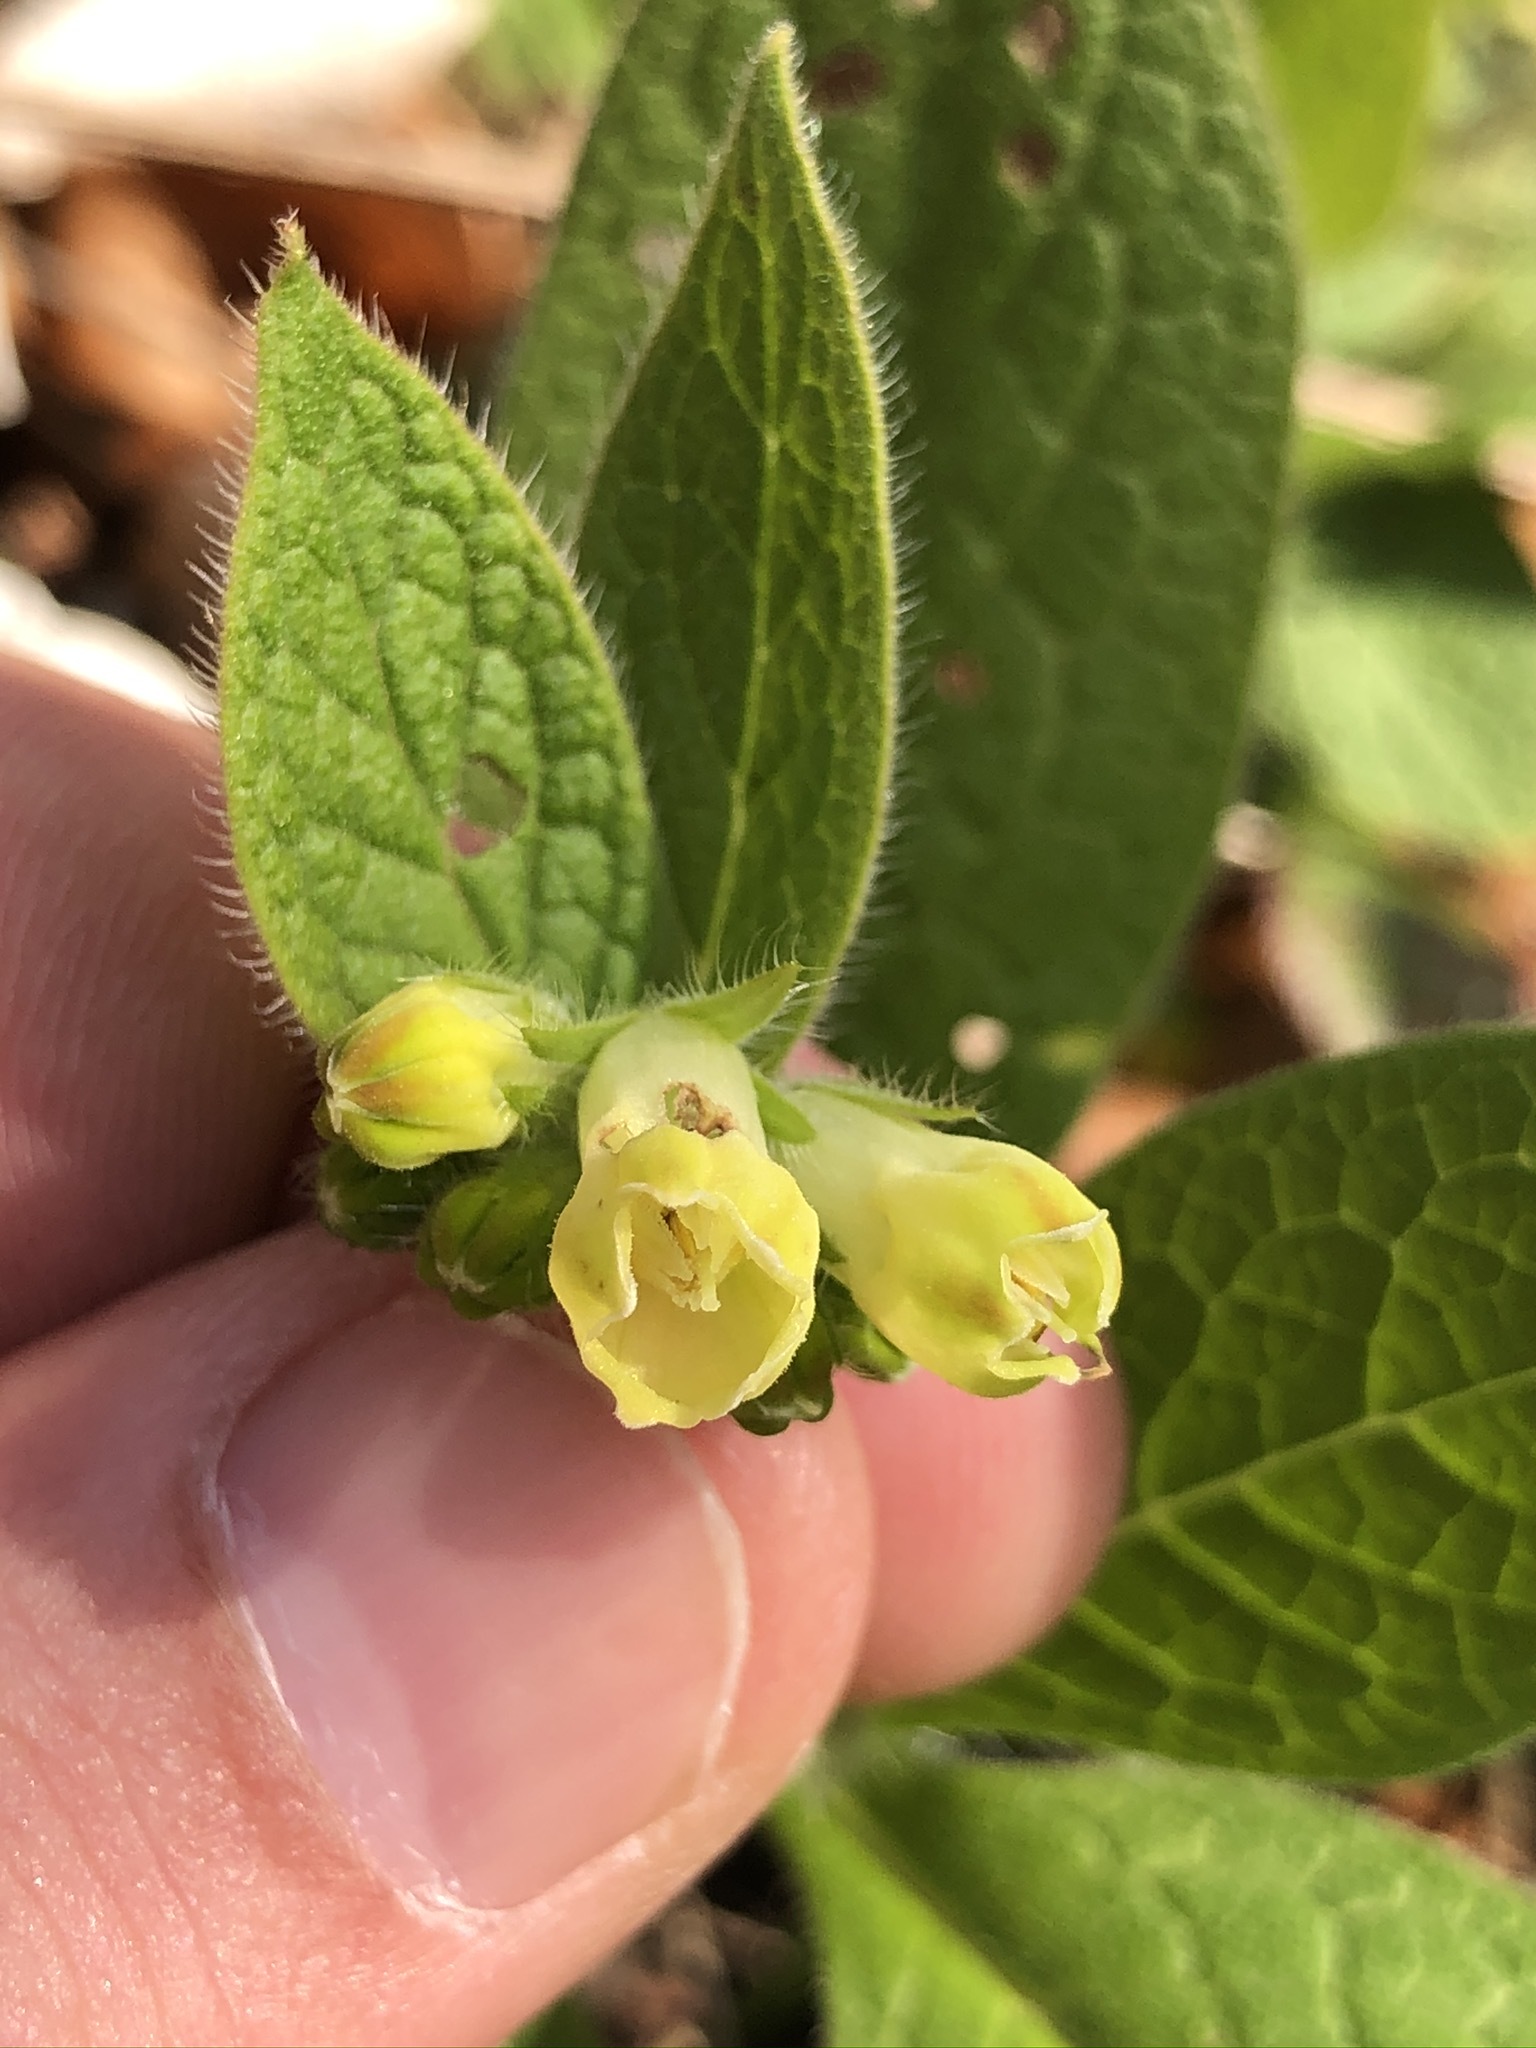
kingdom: Plantae
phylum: Tracheophyta
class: Magnoliopsida
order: Boraginales
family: Boraginaceae
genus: Symphytum
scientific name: Symphytum tuberosum
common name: Tuberous comfrey
